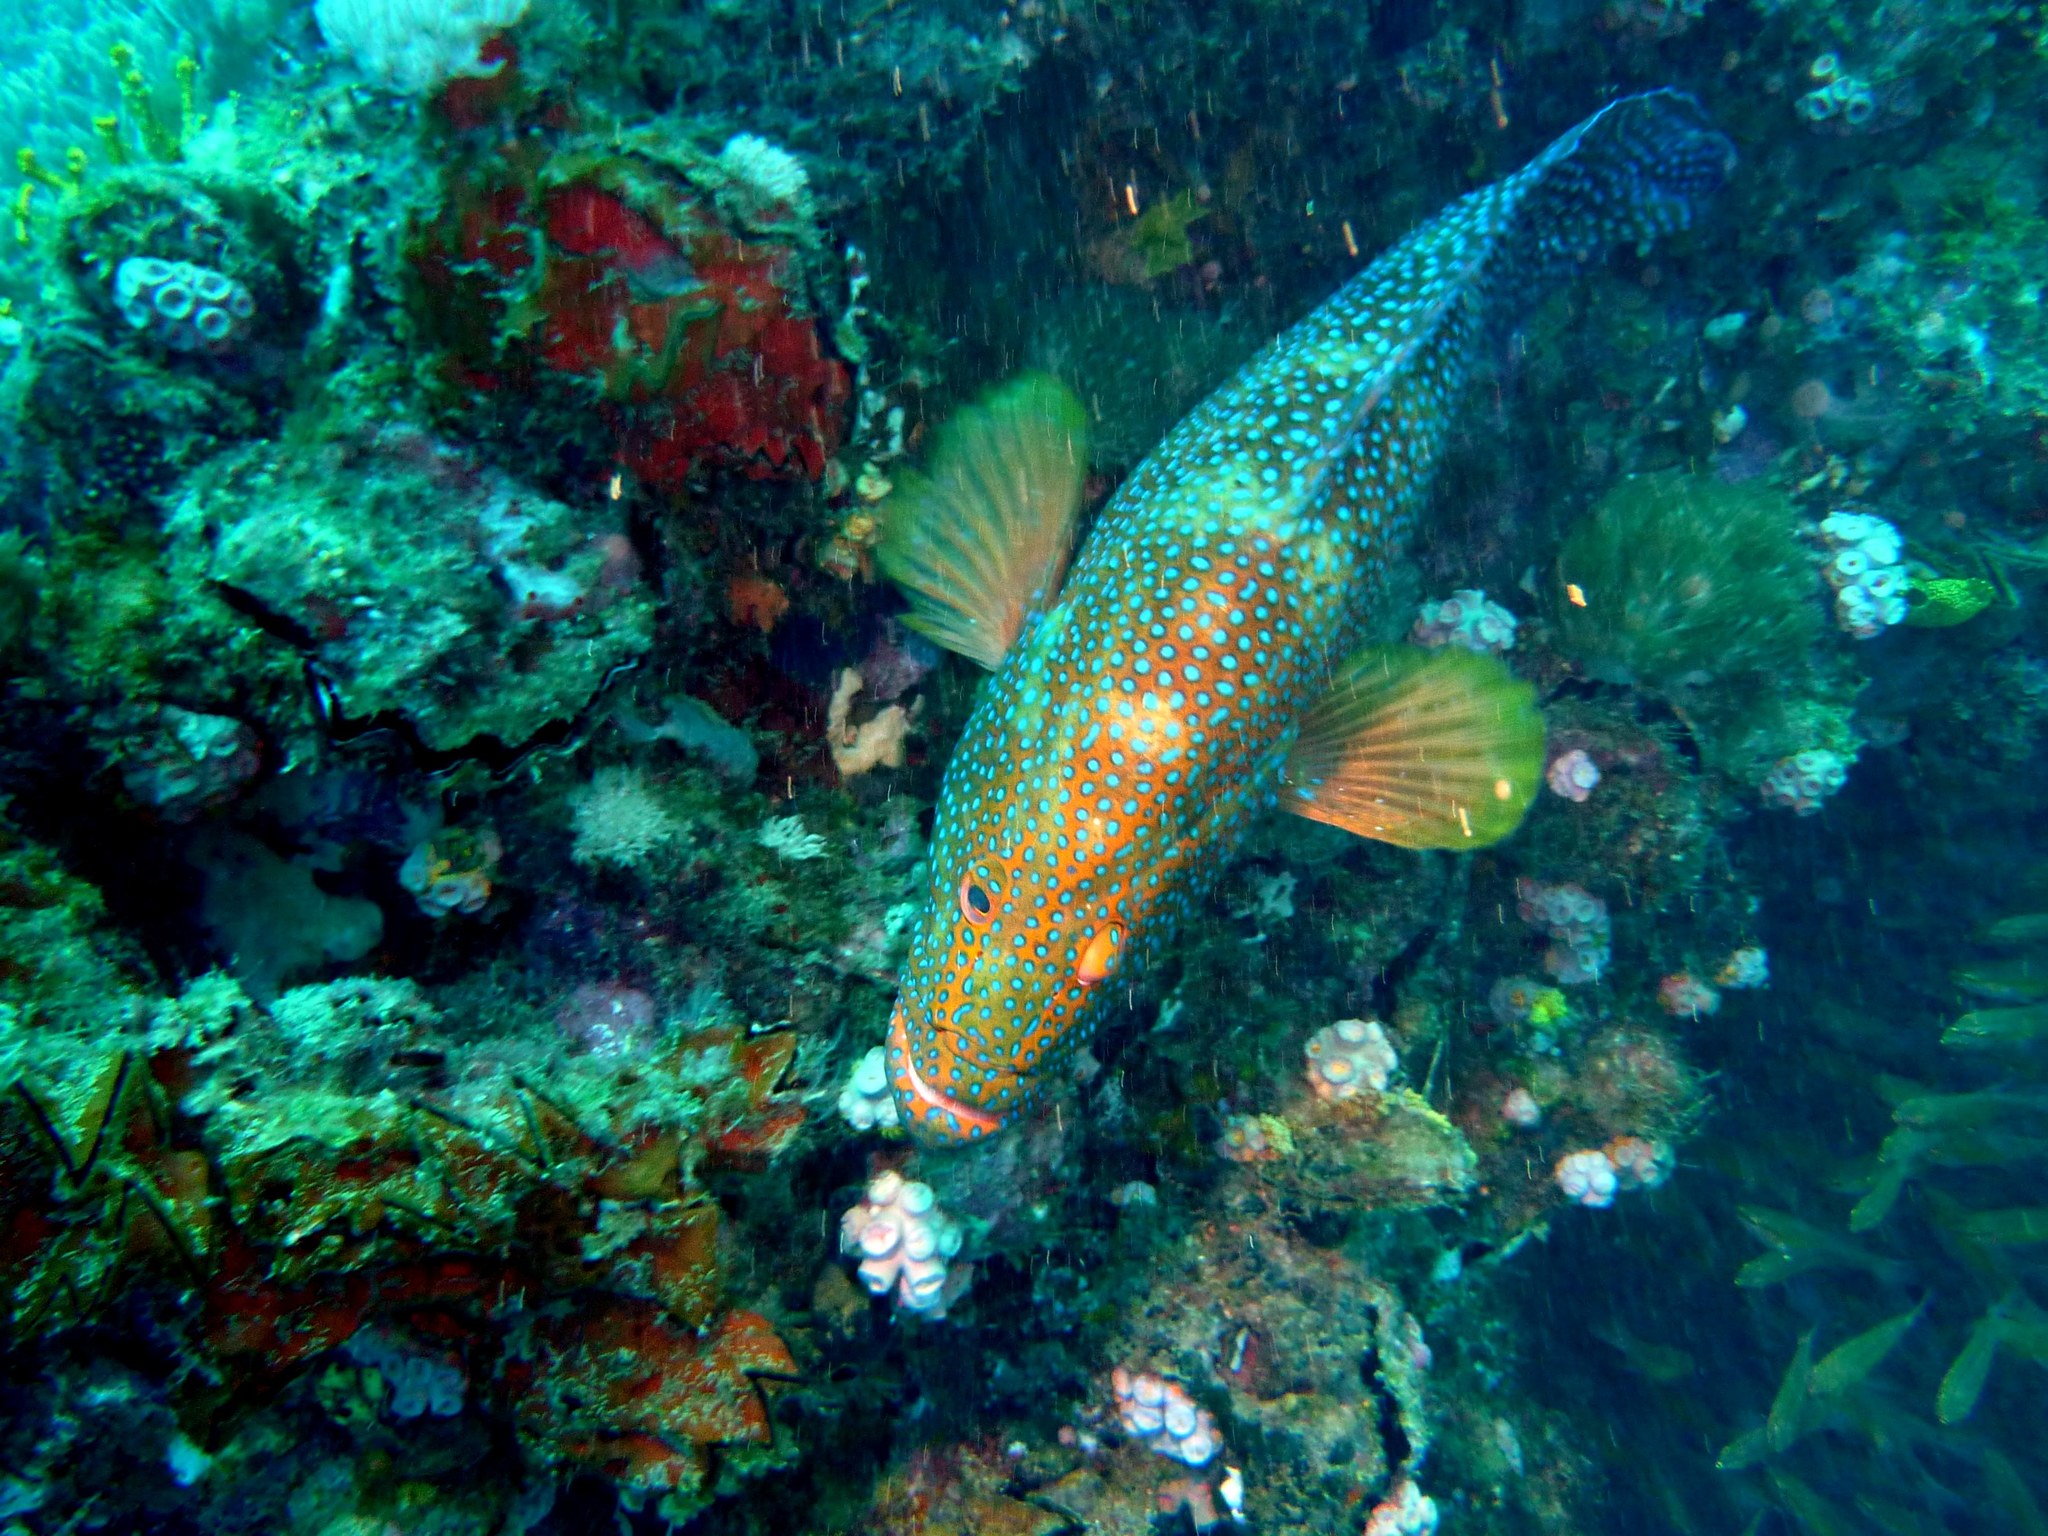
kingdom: Animalia
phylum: Chordata
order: Perciformes
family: Serranidae
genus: Cephalopholis
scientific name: Cephalopholis miniata
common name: Coral hind
